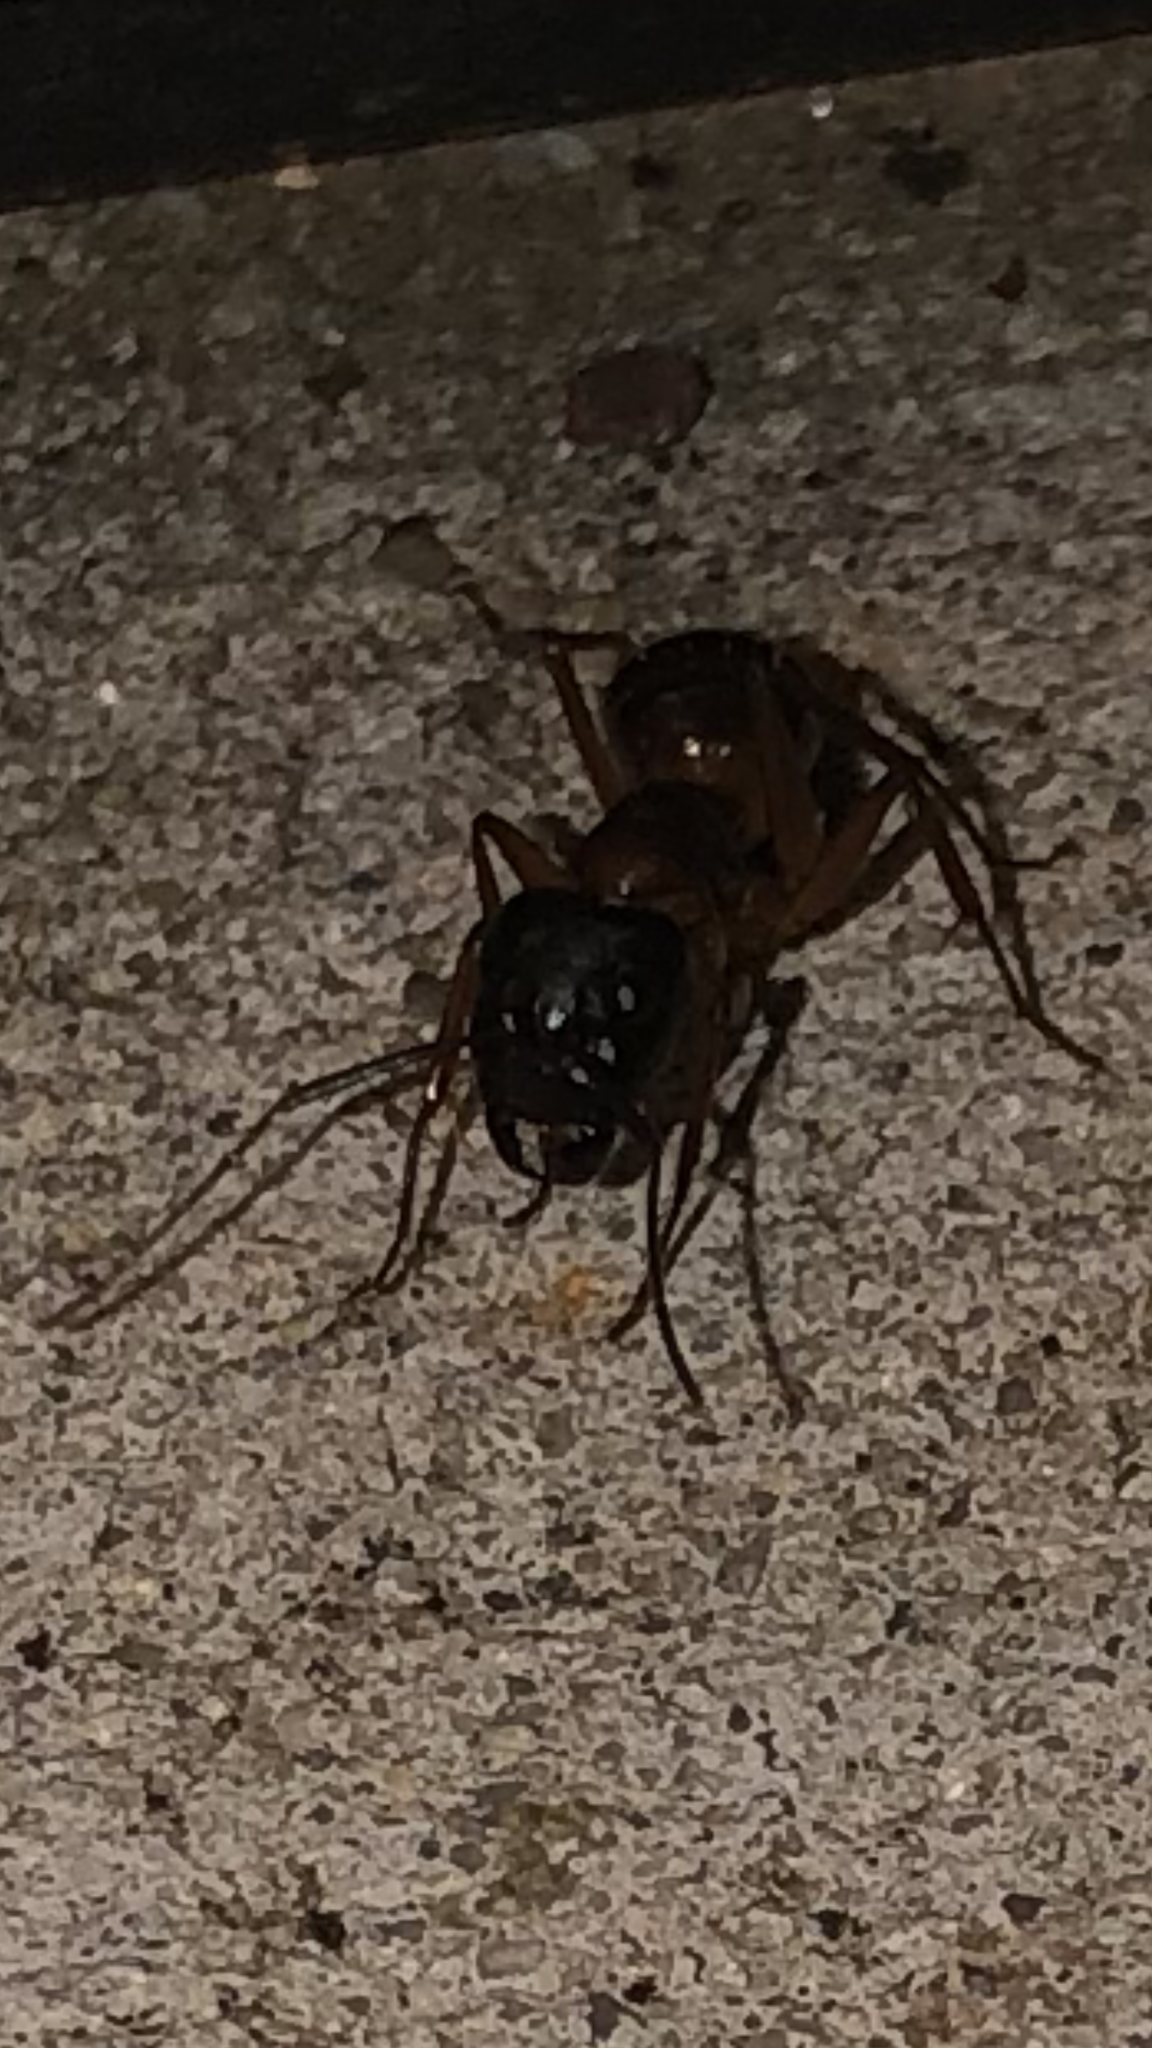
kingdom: Animalia
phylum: Arthropoda
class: Insecta
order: Hymenoptera
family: Formicidae
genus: Camponotus
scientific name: Camponotus americanus
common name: American carpenter ant
